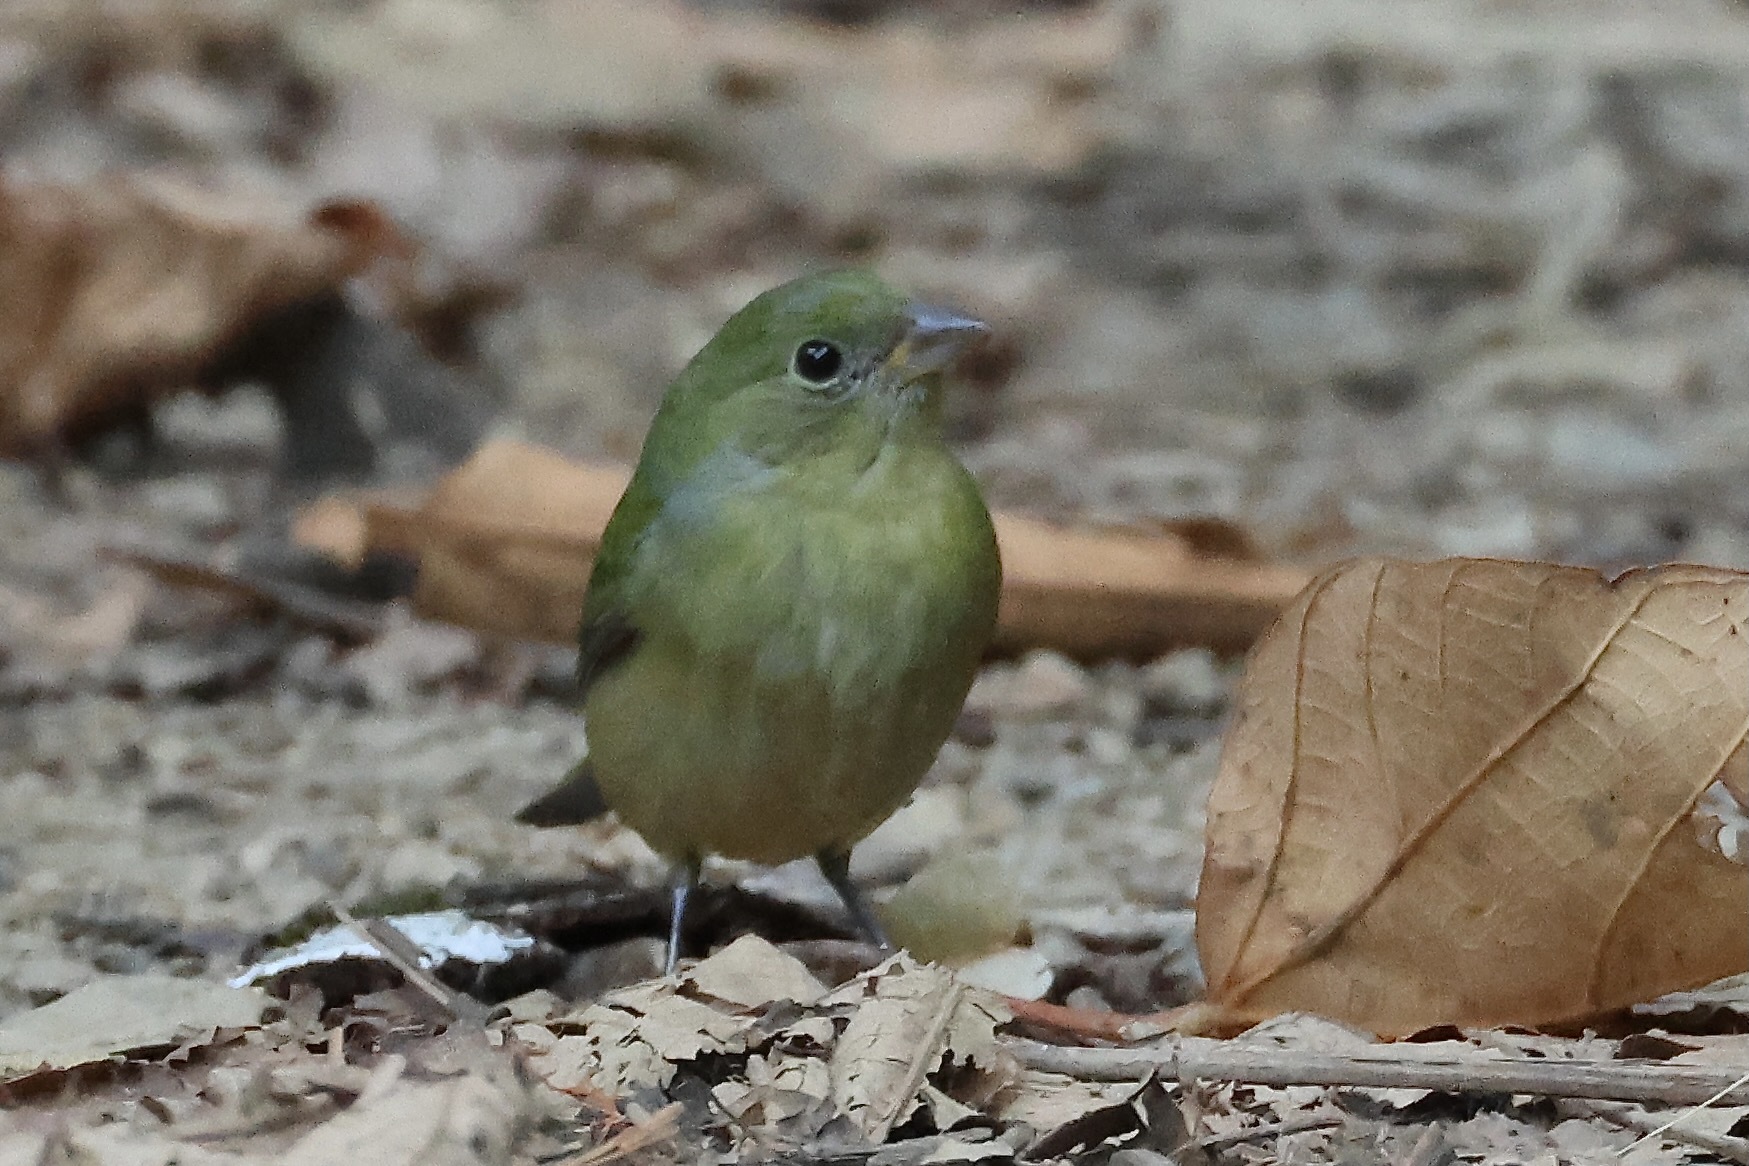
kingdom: Animalia
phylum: Chordata
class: Aves
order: Passeriformes
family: Cardinalidae
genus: Passerina
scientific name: Passerina ciris
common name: Painted bunting
